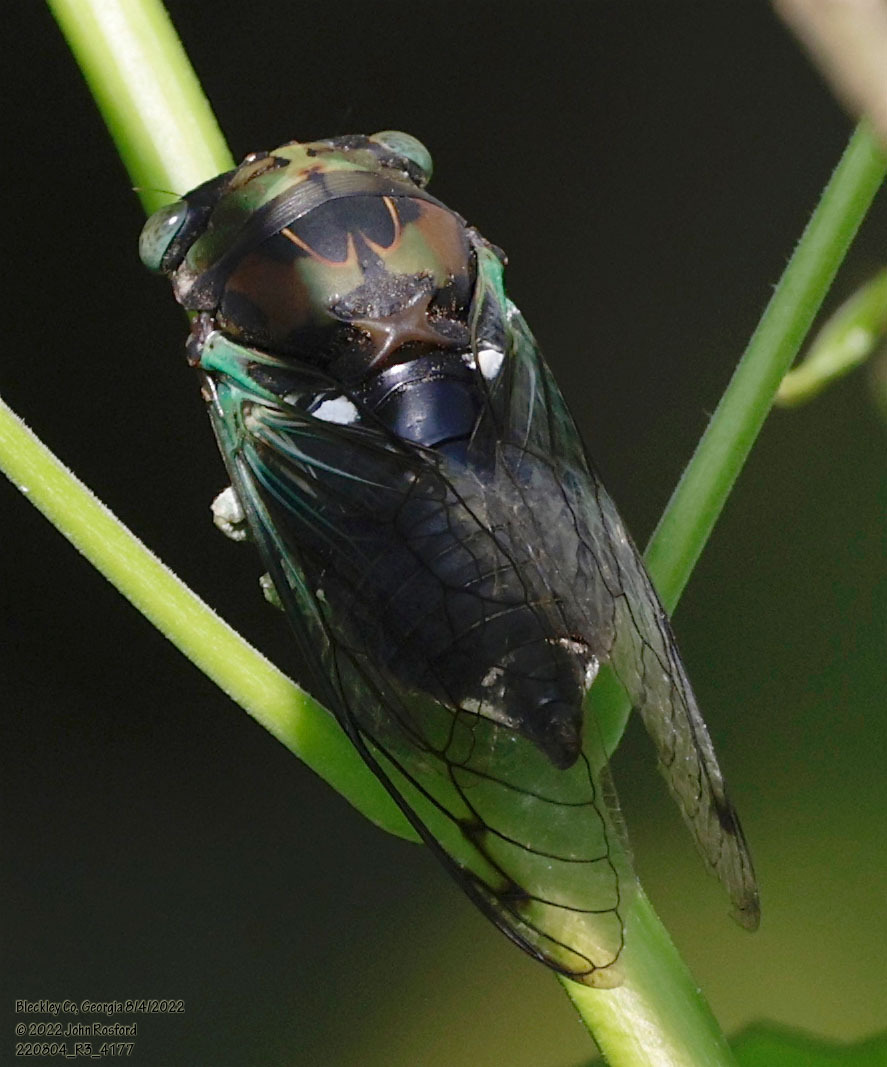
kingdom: Animalia
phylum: Arthropoda
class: Insecta
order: Hemiptera
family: Cicadidae
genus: Neotibicen
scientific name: Neotibicen tibicen
